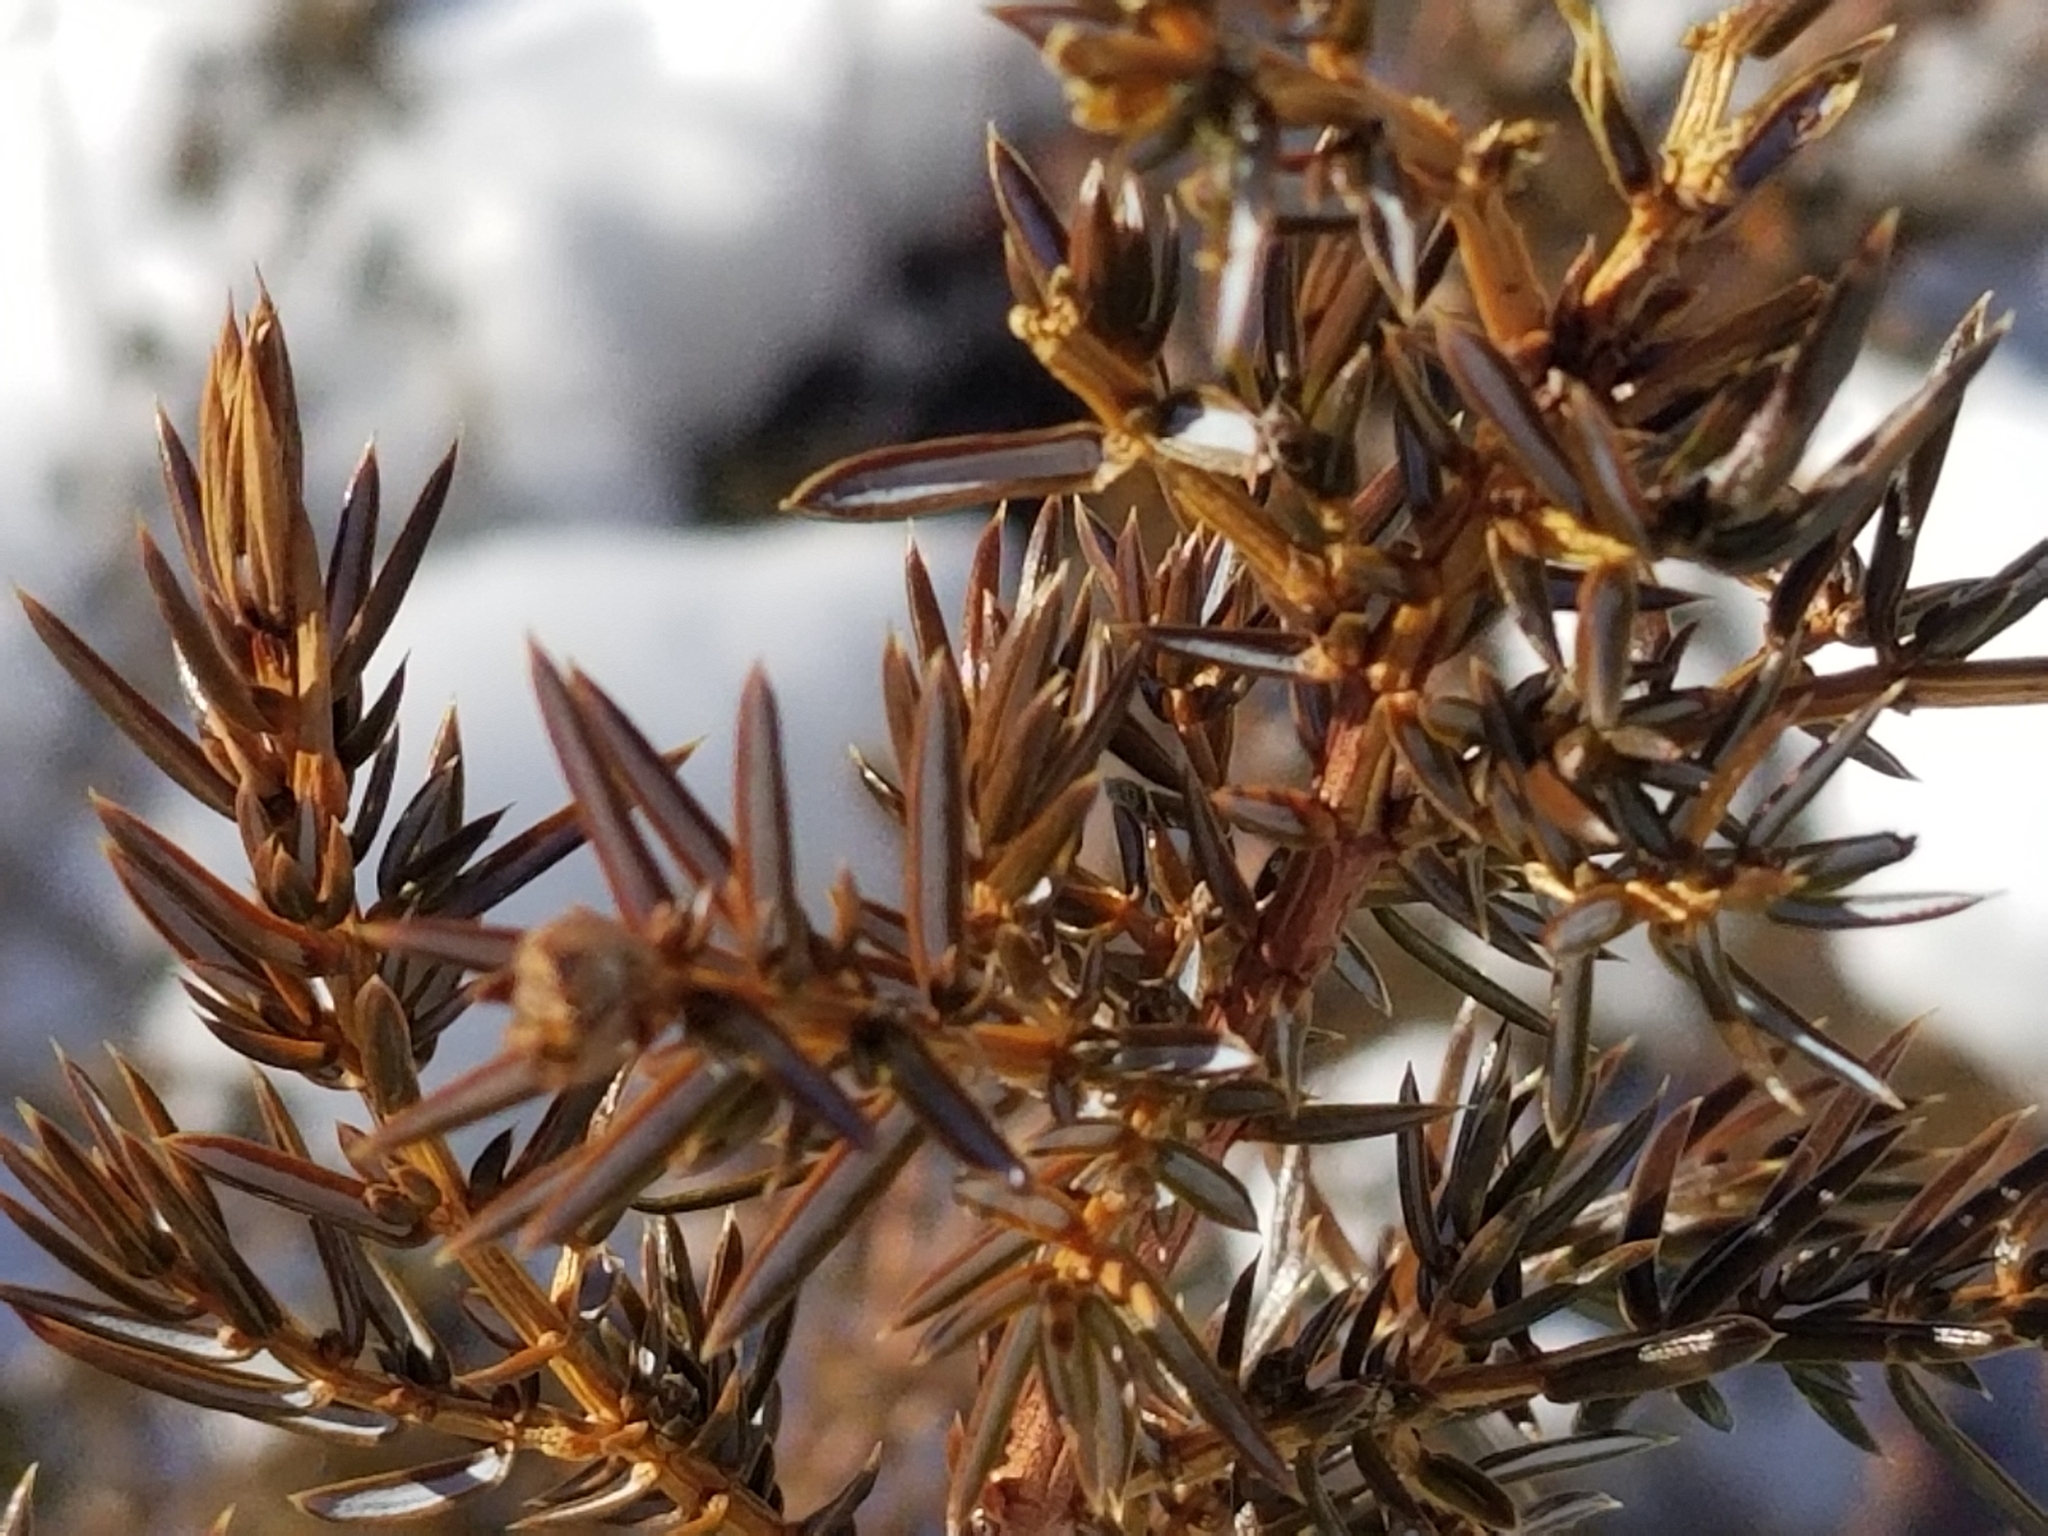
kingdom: Plantae
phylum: Tracheophyta
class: Pinopsida
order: Pinales
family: Cupressaceae
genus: Juniperus
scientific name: Juniperus communis
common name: Common juniper
